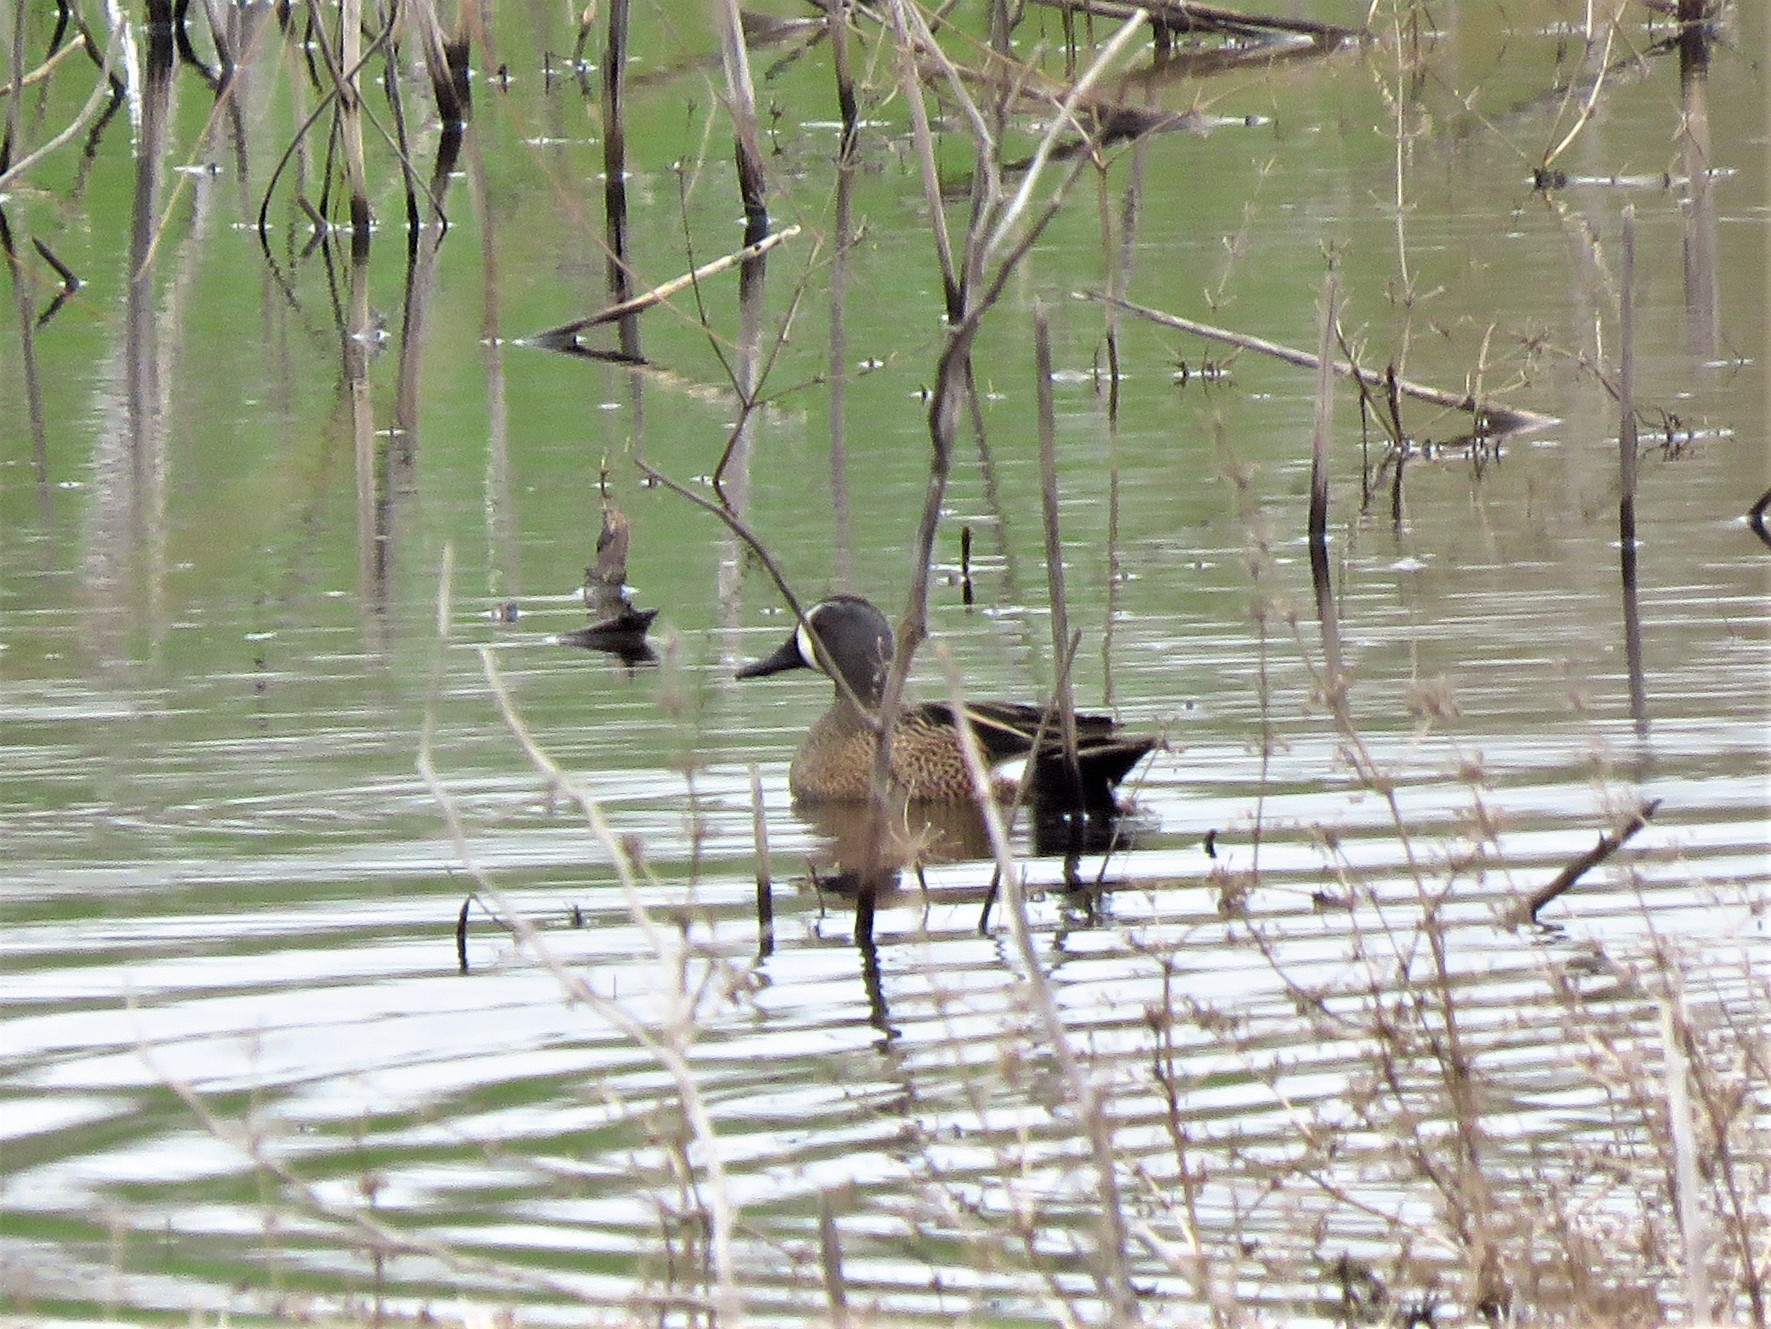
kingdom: Animalia
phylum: Chordata
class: Aves
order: Anseriformes
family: Anatidae
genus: Spatula
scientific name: Spatula discors
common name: Blue-winged teal
